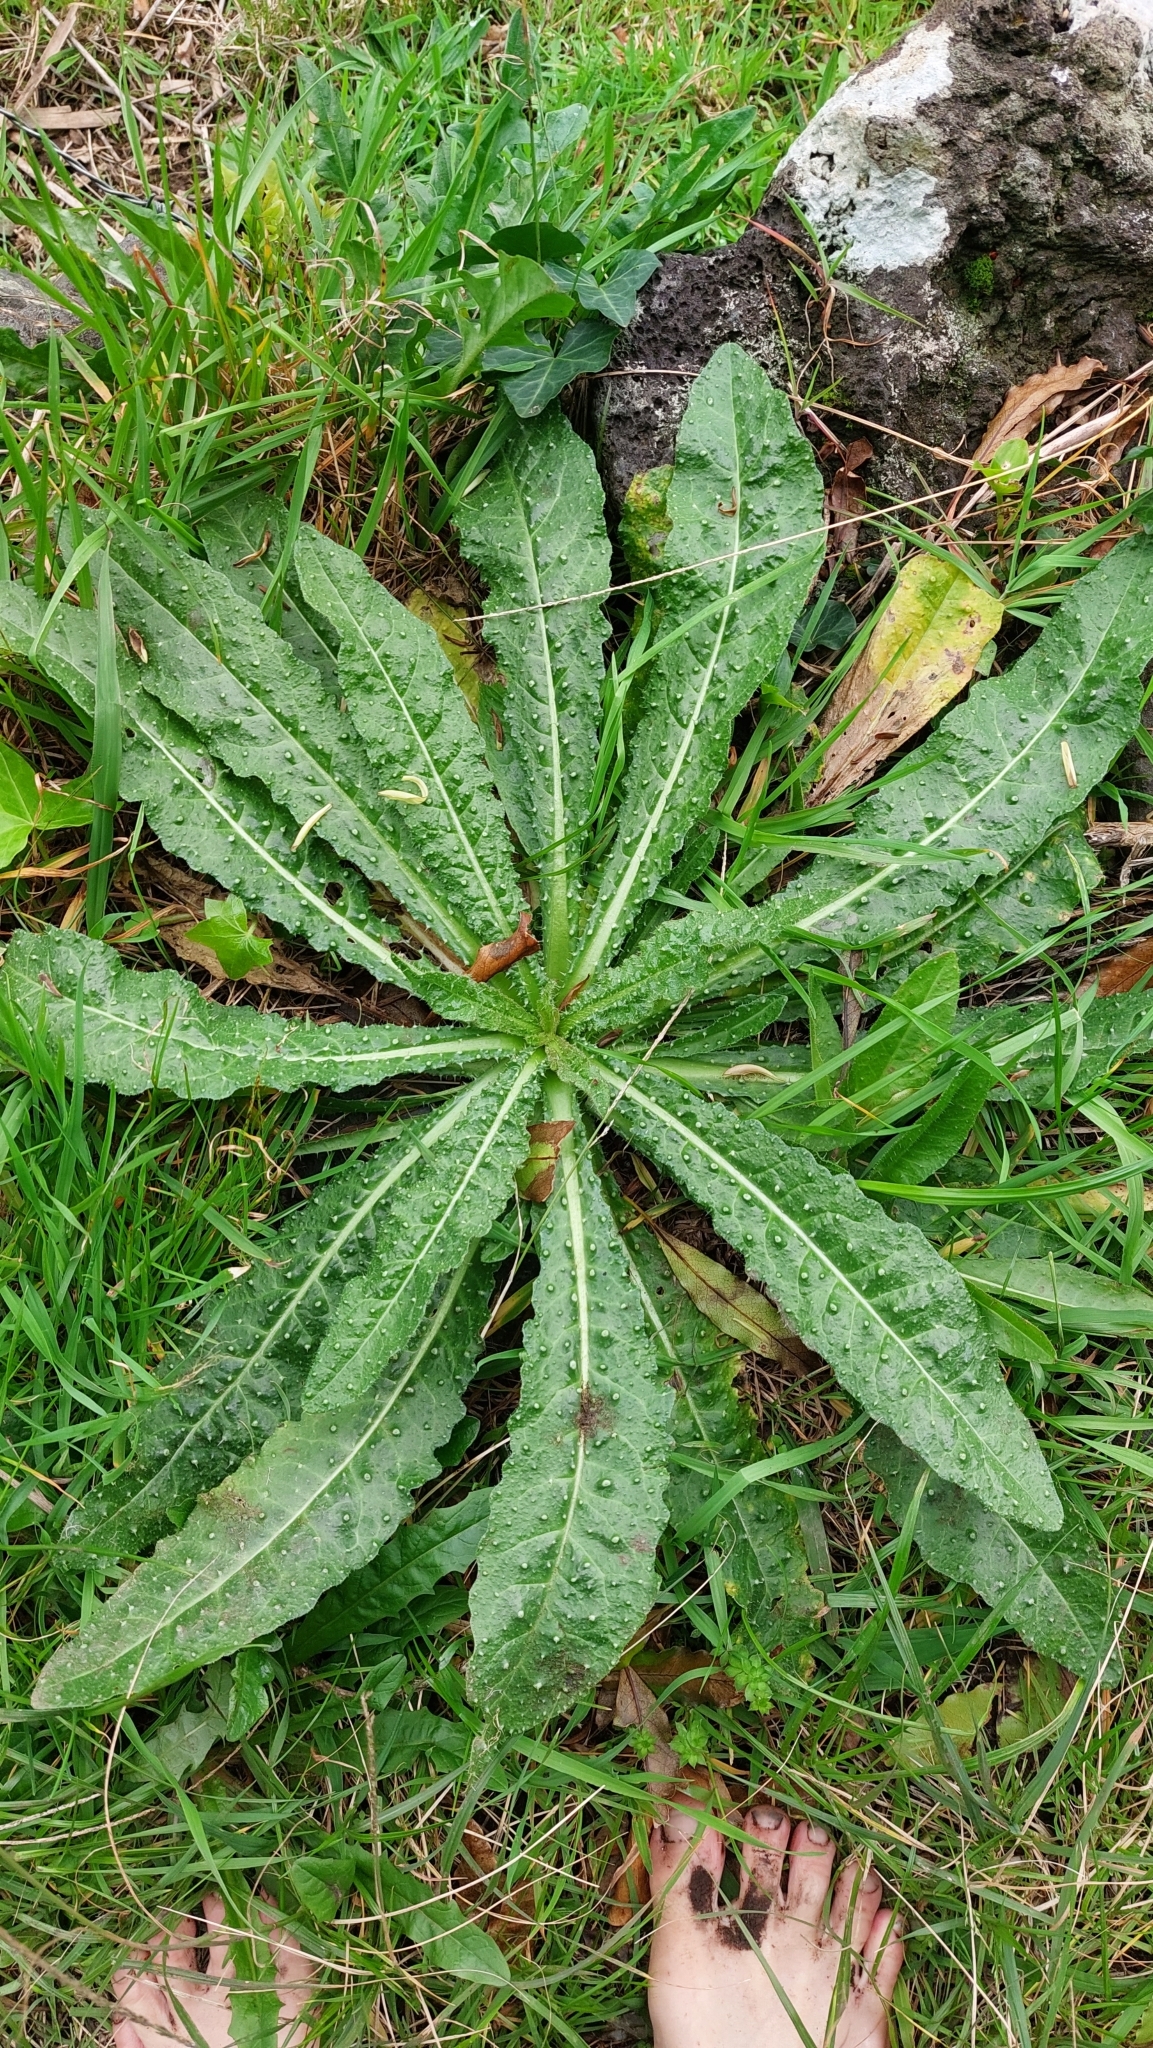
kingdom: Plantae
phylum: Tracheophyta
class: Magnoliopsida
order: Asterales
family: Asteraceae
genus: Helminthotheca
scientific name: Helminthotheca echioides
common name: Ox-tongue
